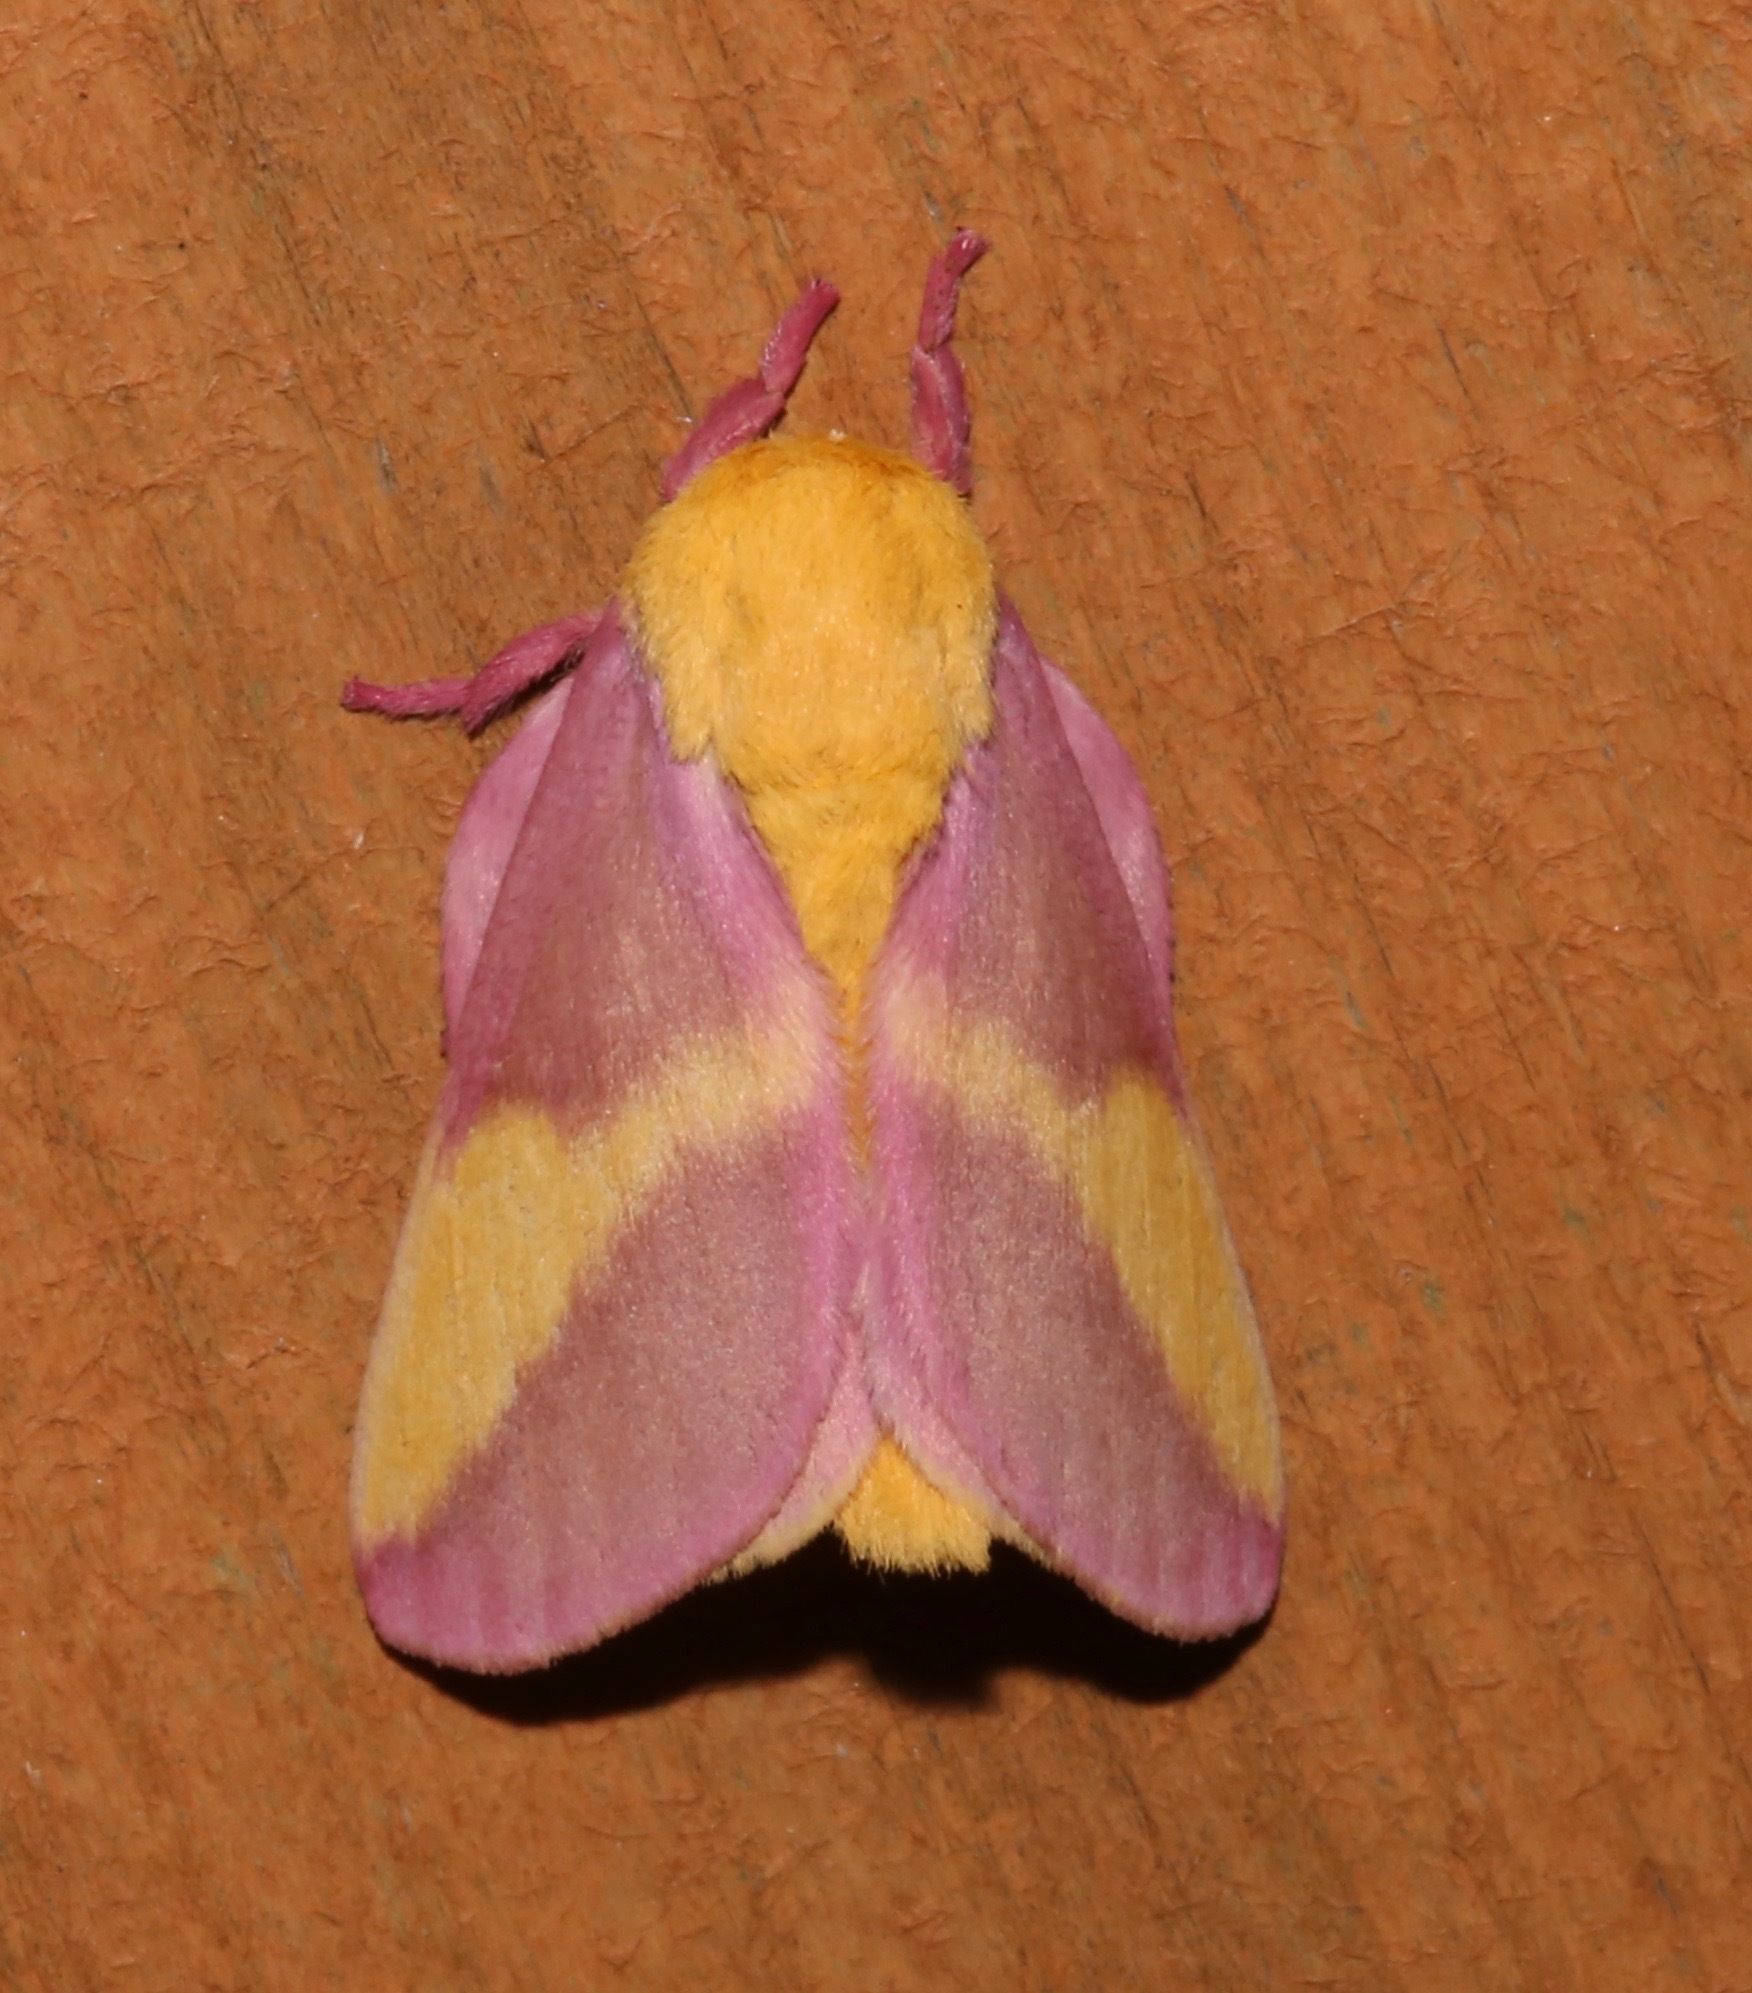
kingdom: Animalia
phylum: Arthropoda
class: Insecta
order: Lepidoptera
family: Saturniidae
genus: Dryocampa
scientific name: Dryocampa rubicunda
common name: Rosy maple moth
